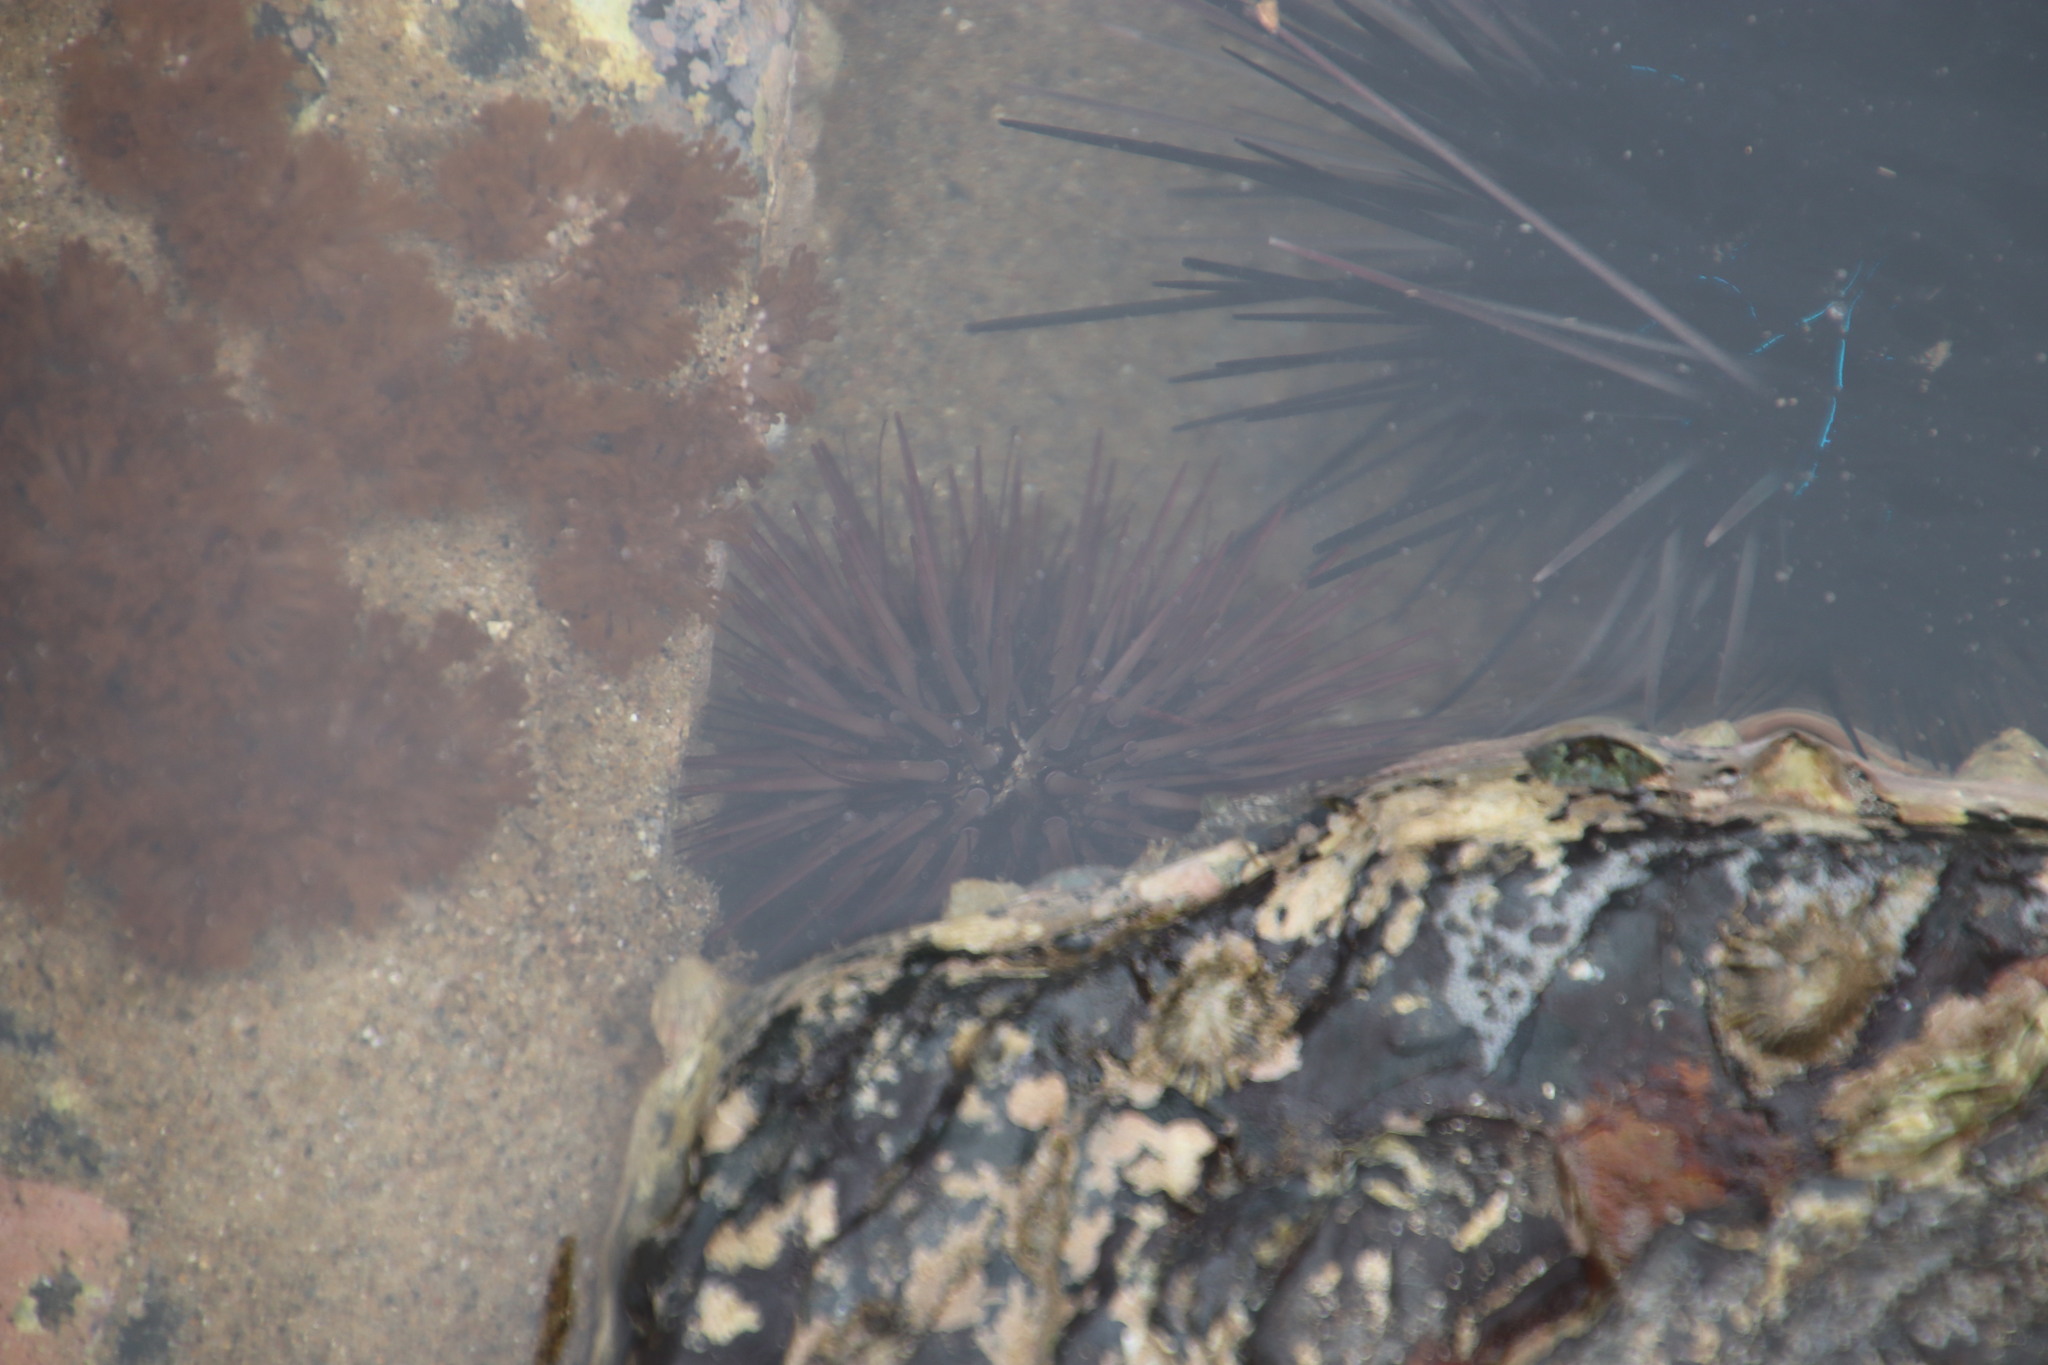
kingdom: Animalia
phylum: Echinodermata
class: Echinoidea
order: Camarodonta
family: Echinometridae
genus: Echinometra
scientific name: Echinometra mathaei
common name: Rock-boring urchin
